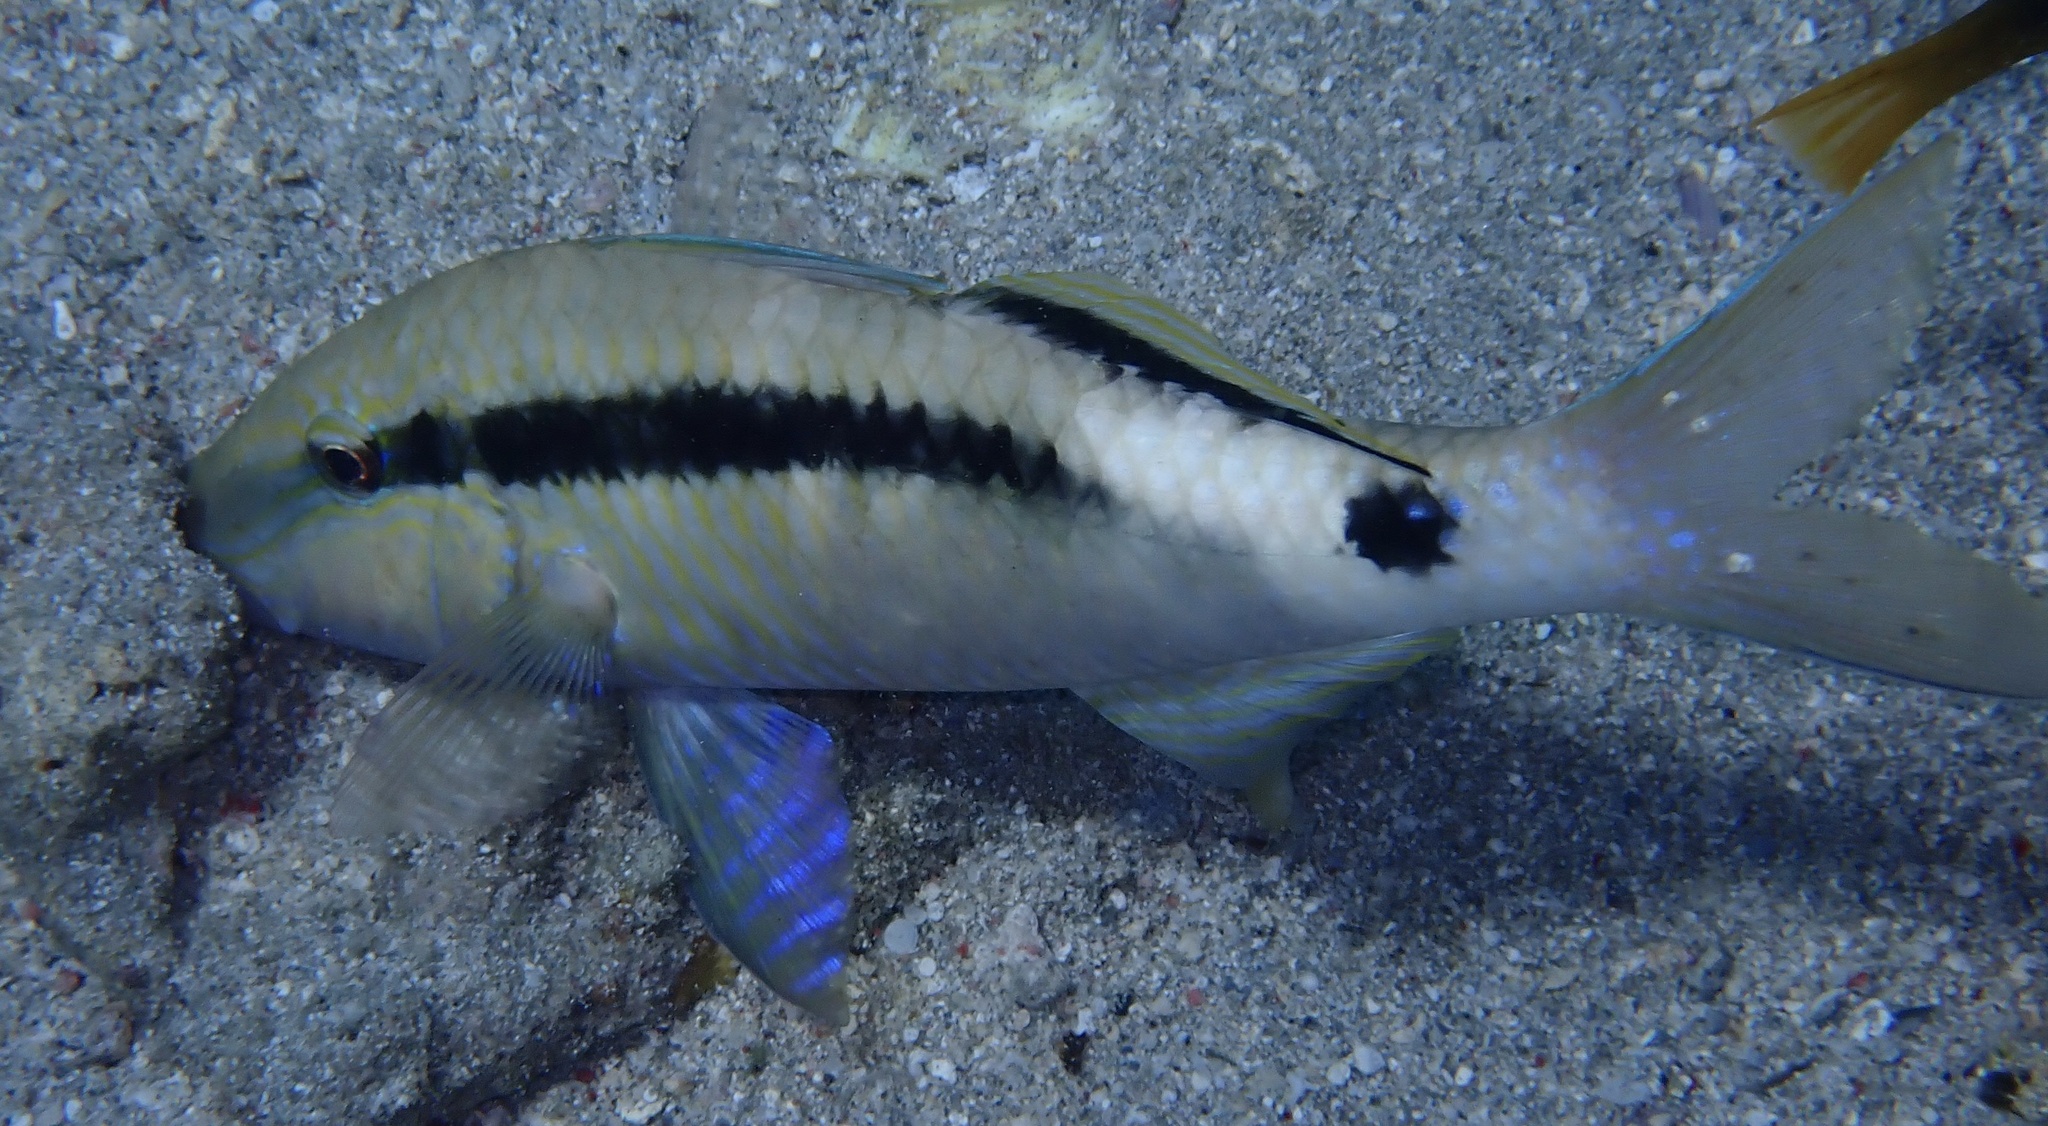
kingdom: Animalia
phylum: Chordata
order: Perciformes
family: Mullidae
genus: Parupeneus
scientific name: Parupeneus macronemus
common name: Long-barbel goatfish
